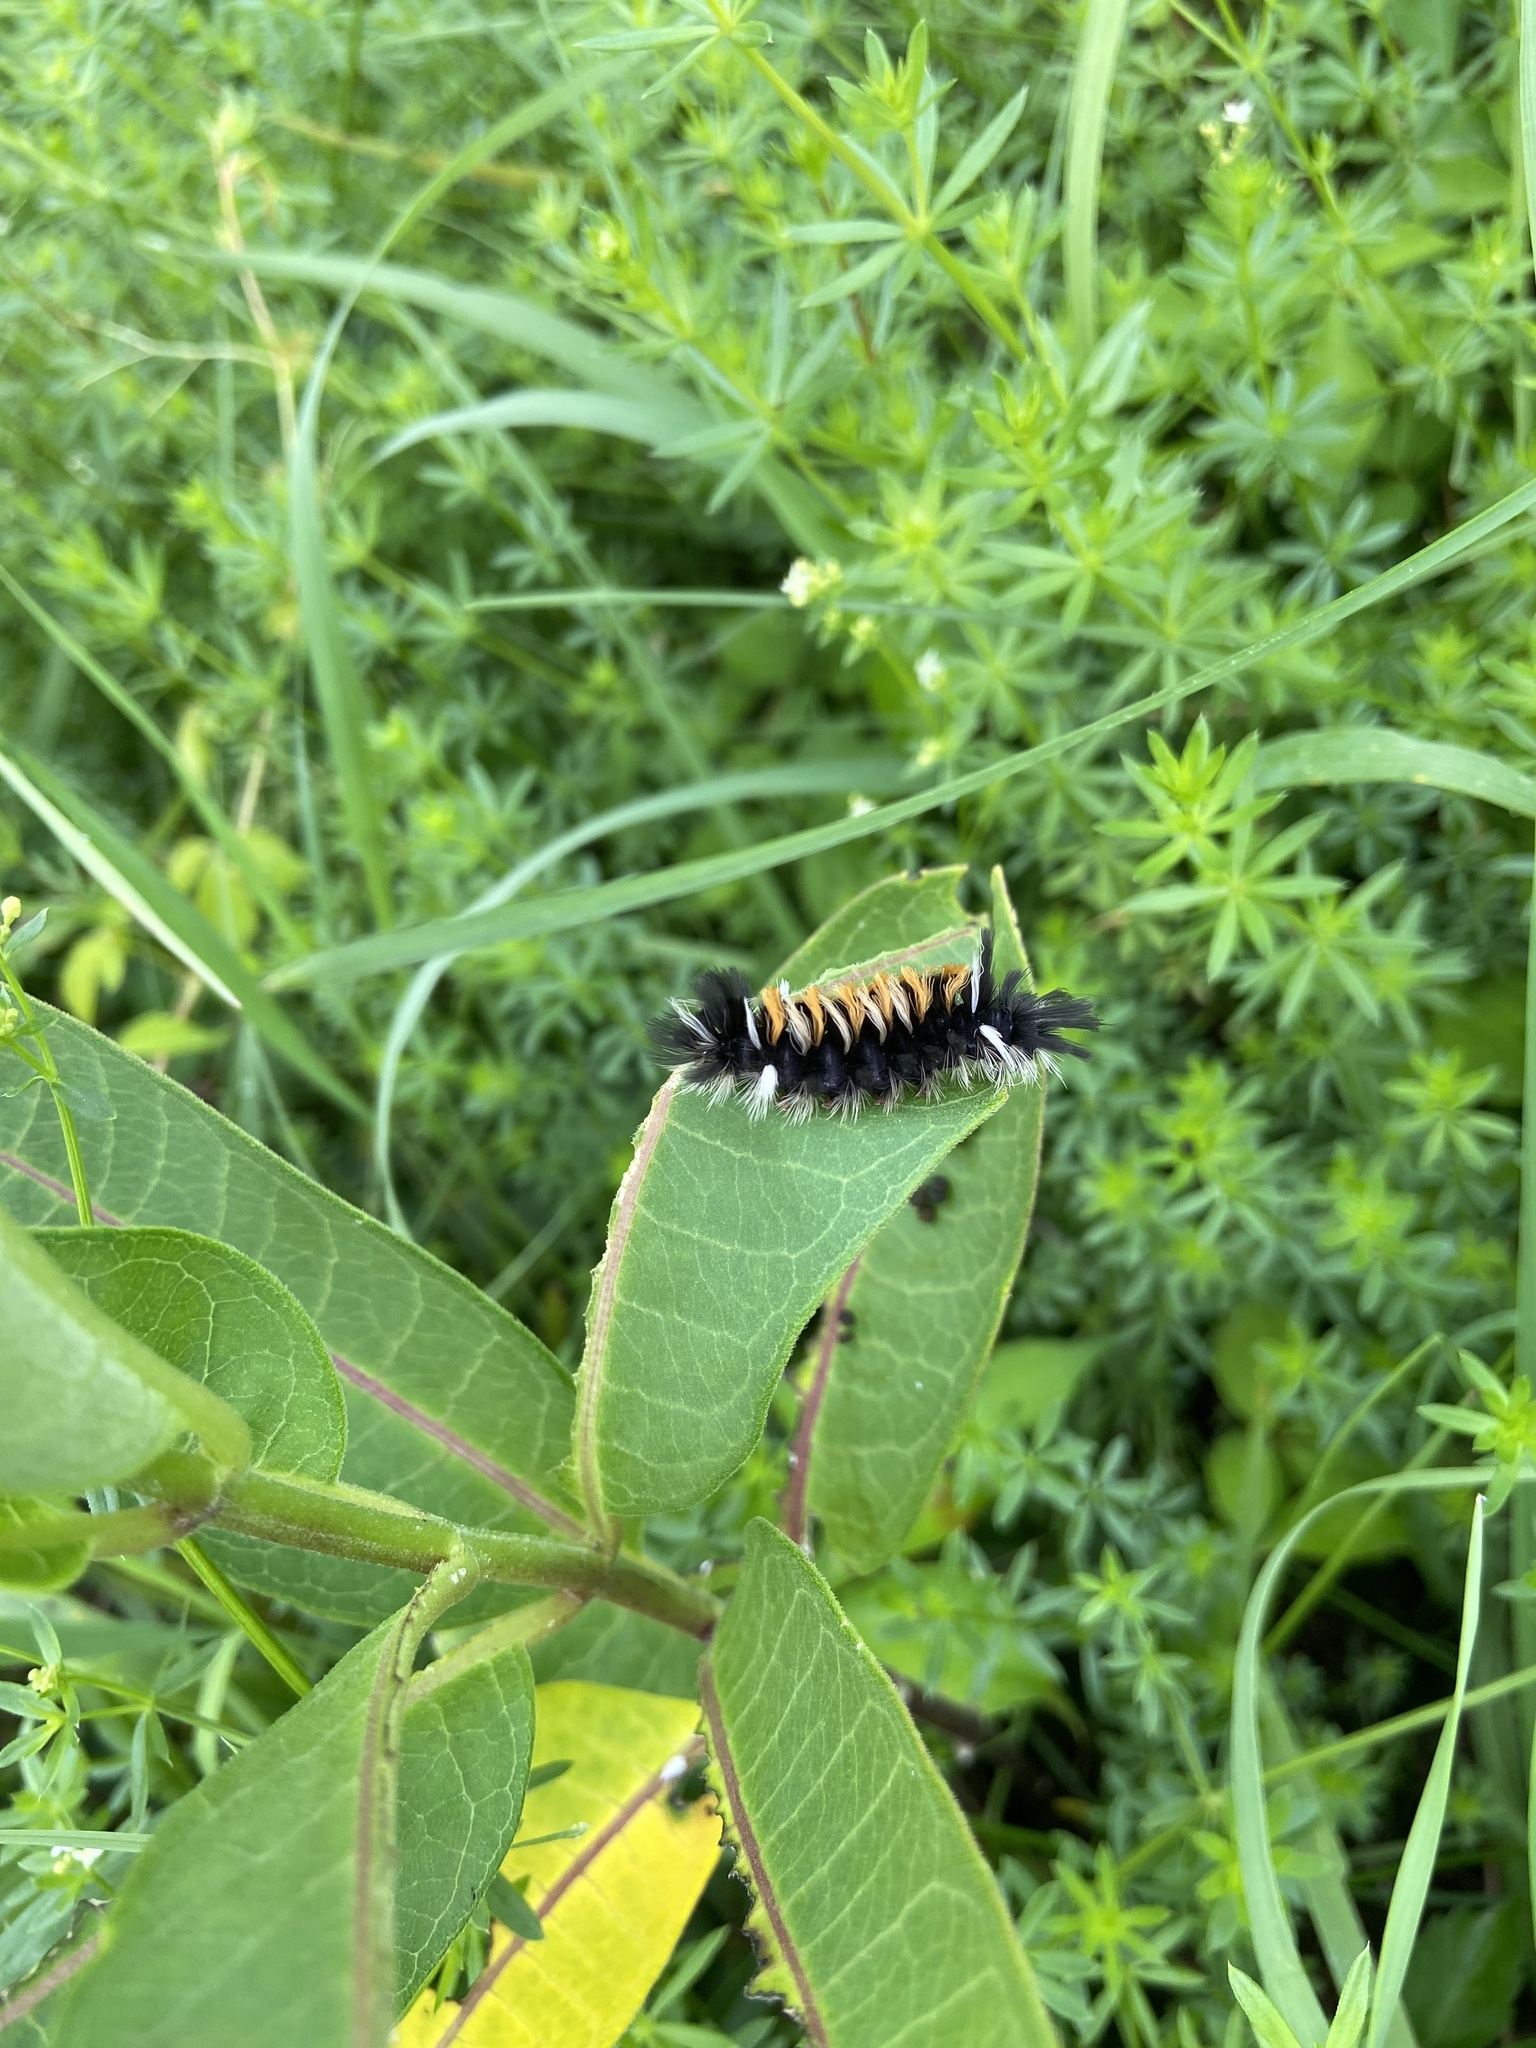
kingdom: Animalia
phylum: Arthropoda
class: Insecta
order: Lepidoptera
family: Erebidae
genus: Euchaetes
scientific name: Euchaetes egle
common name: Milkweed tussock moth
